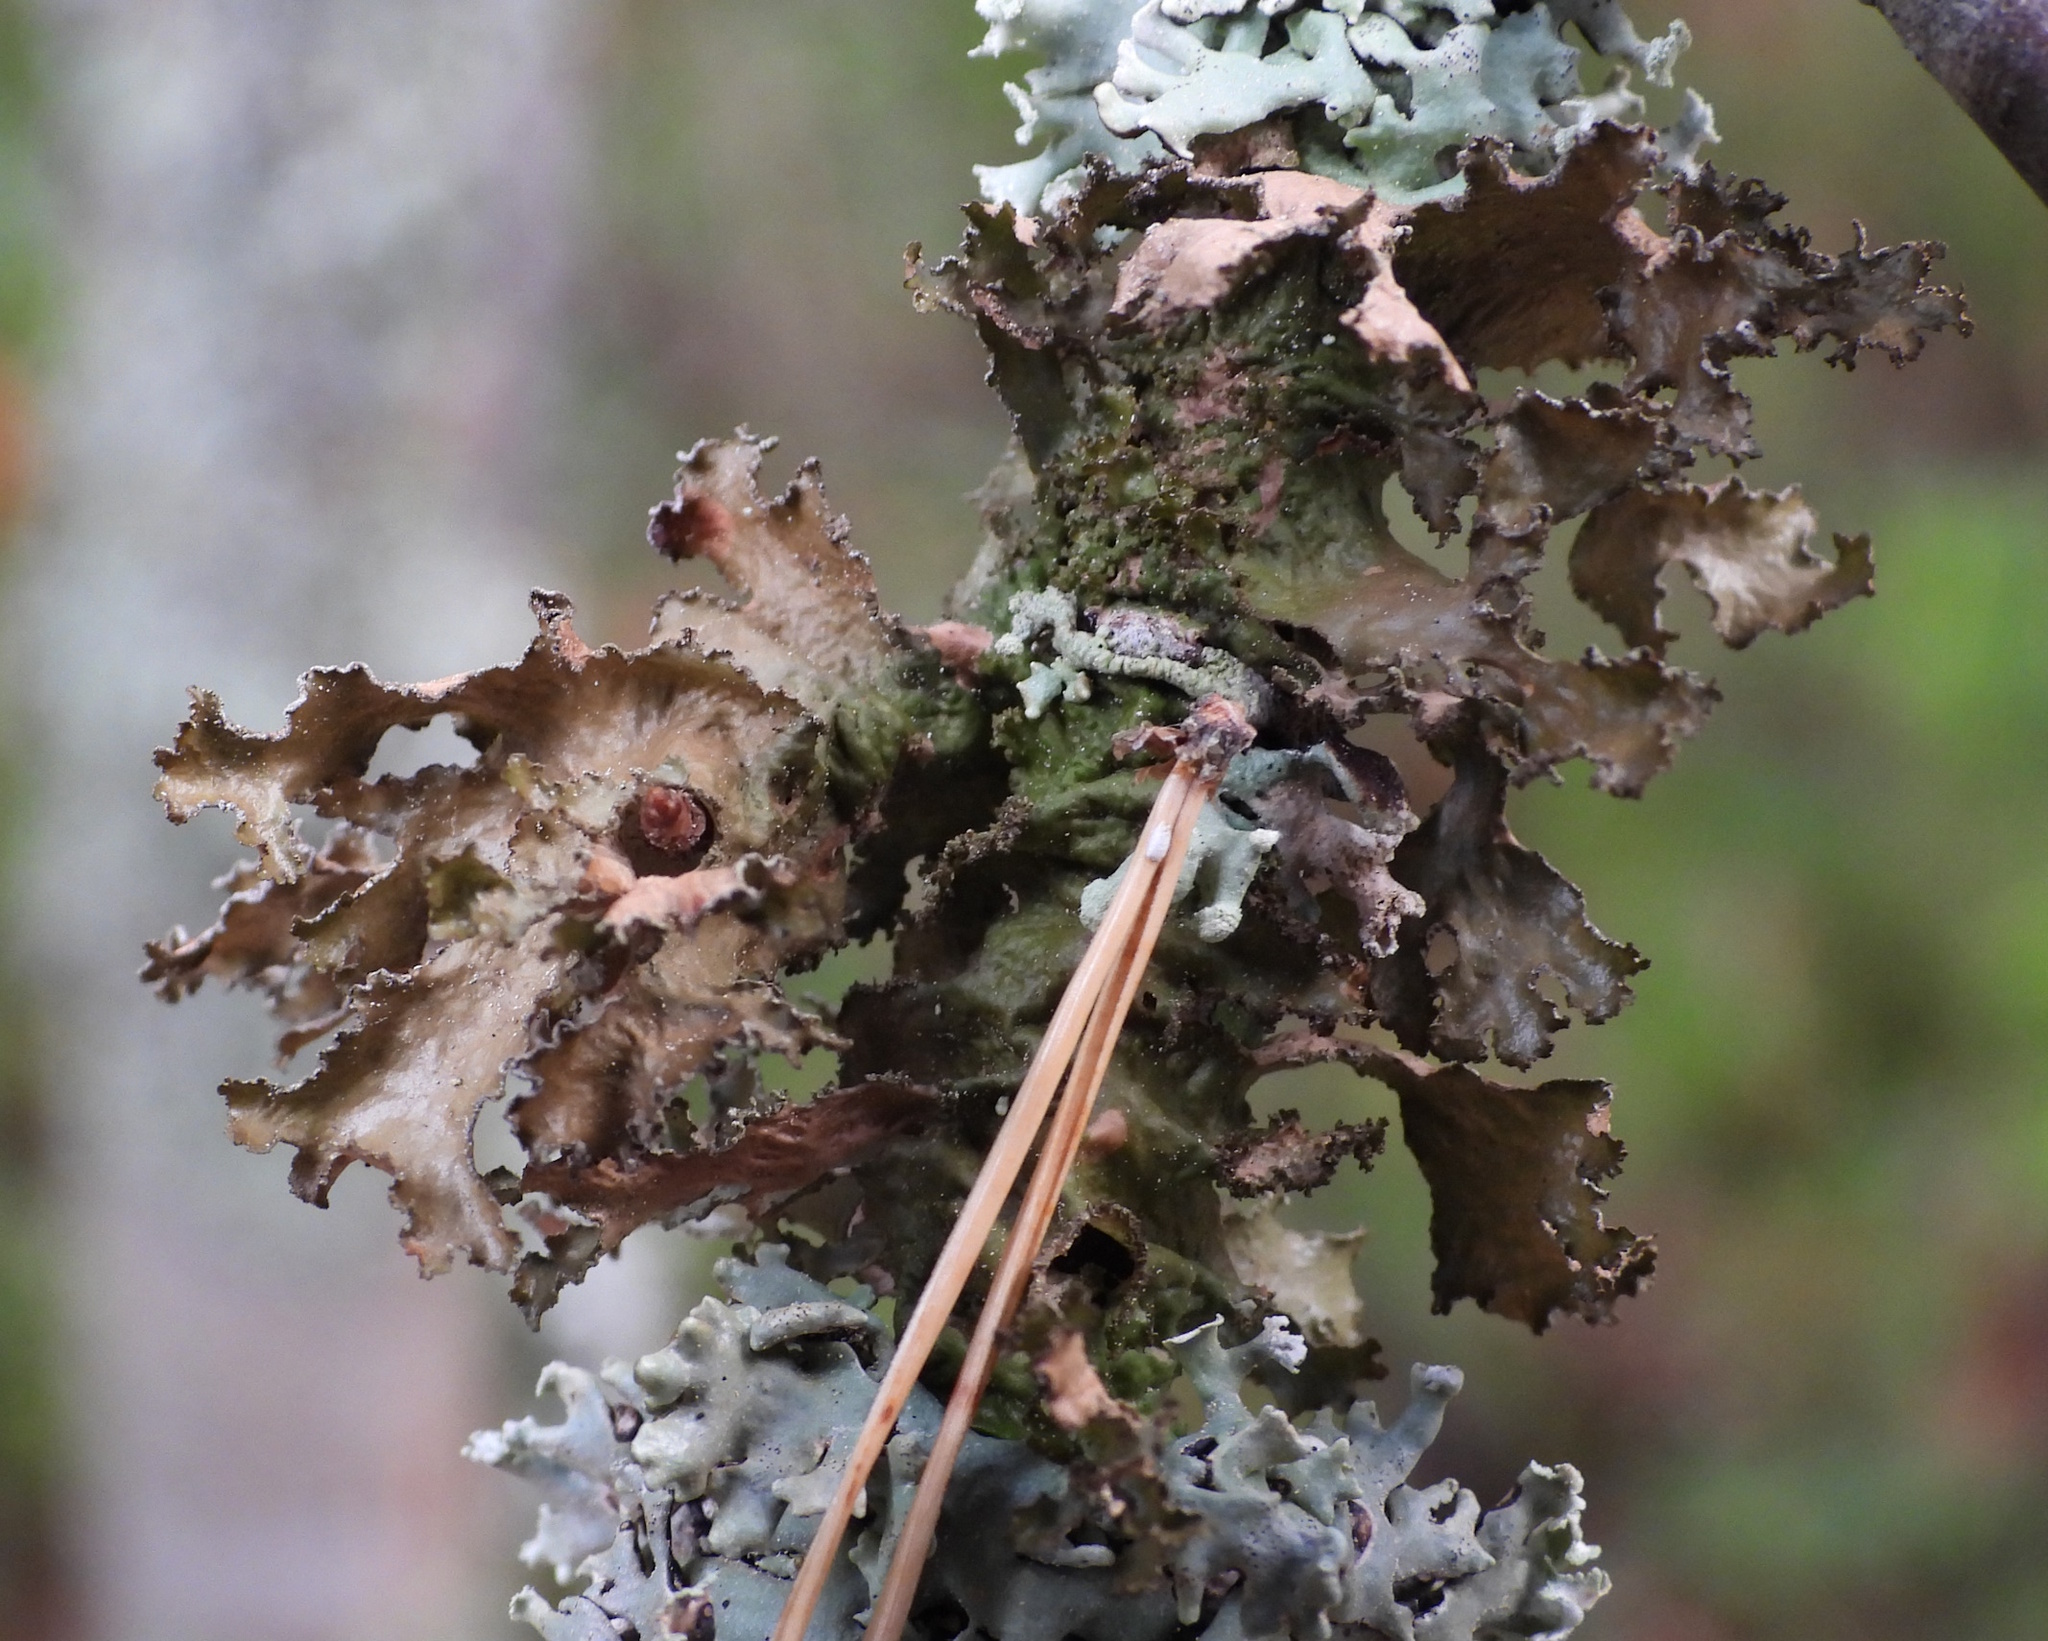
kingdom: Fungi
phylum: Ascomycota
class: Lecanoromycetes
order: Lecanorales
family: Parmeliaceae
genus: Nephromopsis
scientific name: Nephromopsis chlorophylla
